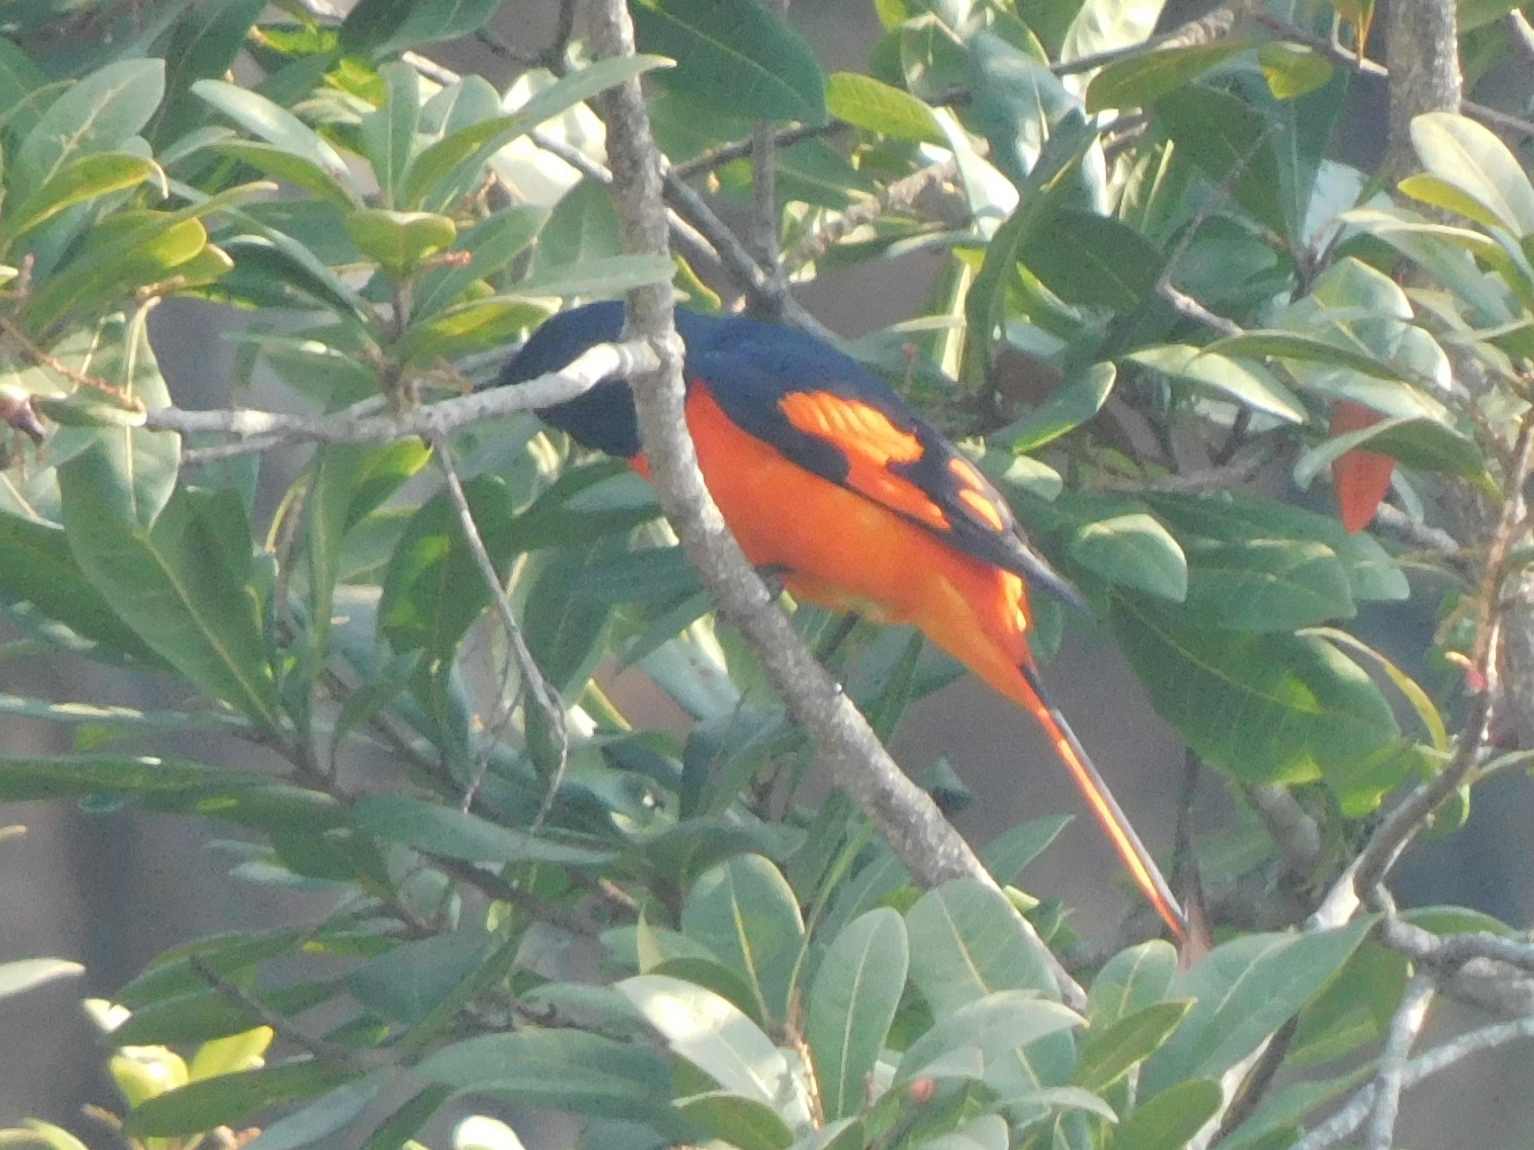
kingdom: Animalia
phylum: Chordata
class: Aves
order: Passeriformes
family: Campephagidae
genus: Pericrocotus
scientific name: Pericrocotus speciosus
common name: Scarlet minivet
